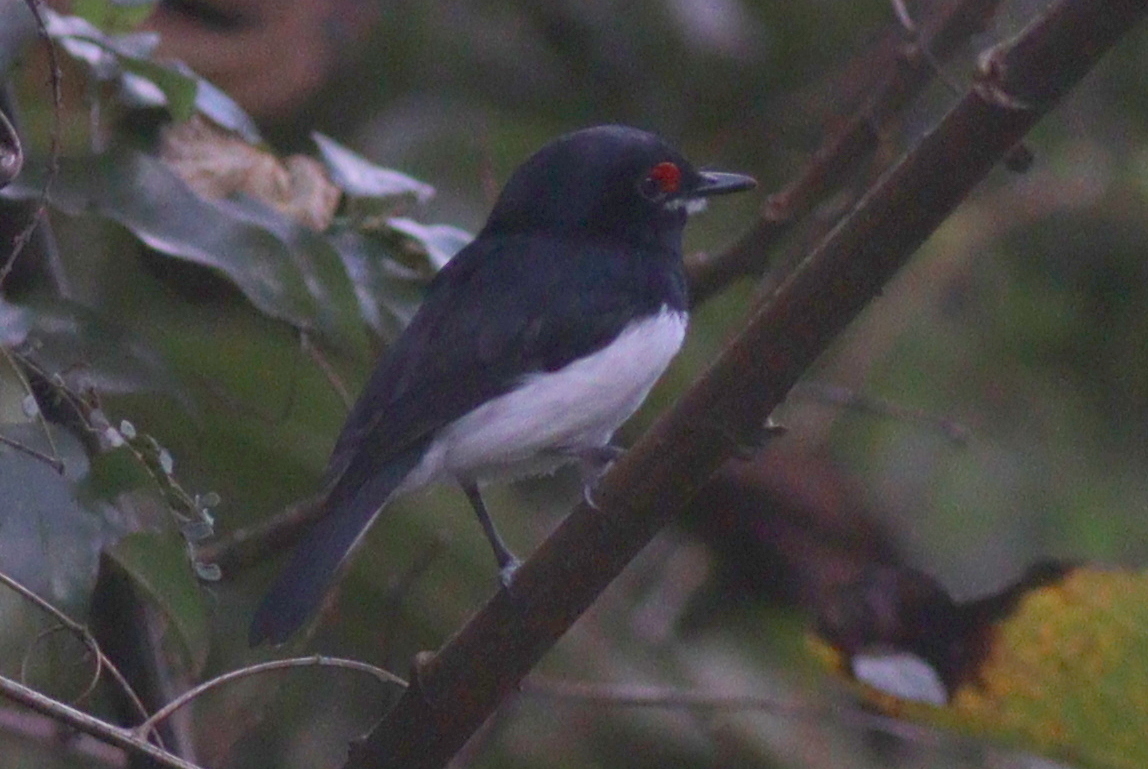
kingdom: Animalia
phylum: Chordata
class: Aves
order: Passeriformes
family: Platysteiridae
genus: Platysteira
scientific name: Platysteira peltata
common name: Black-throated wattle-eye
